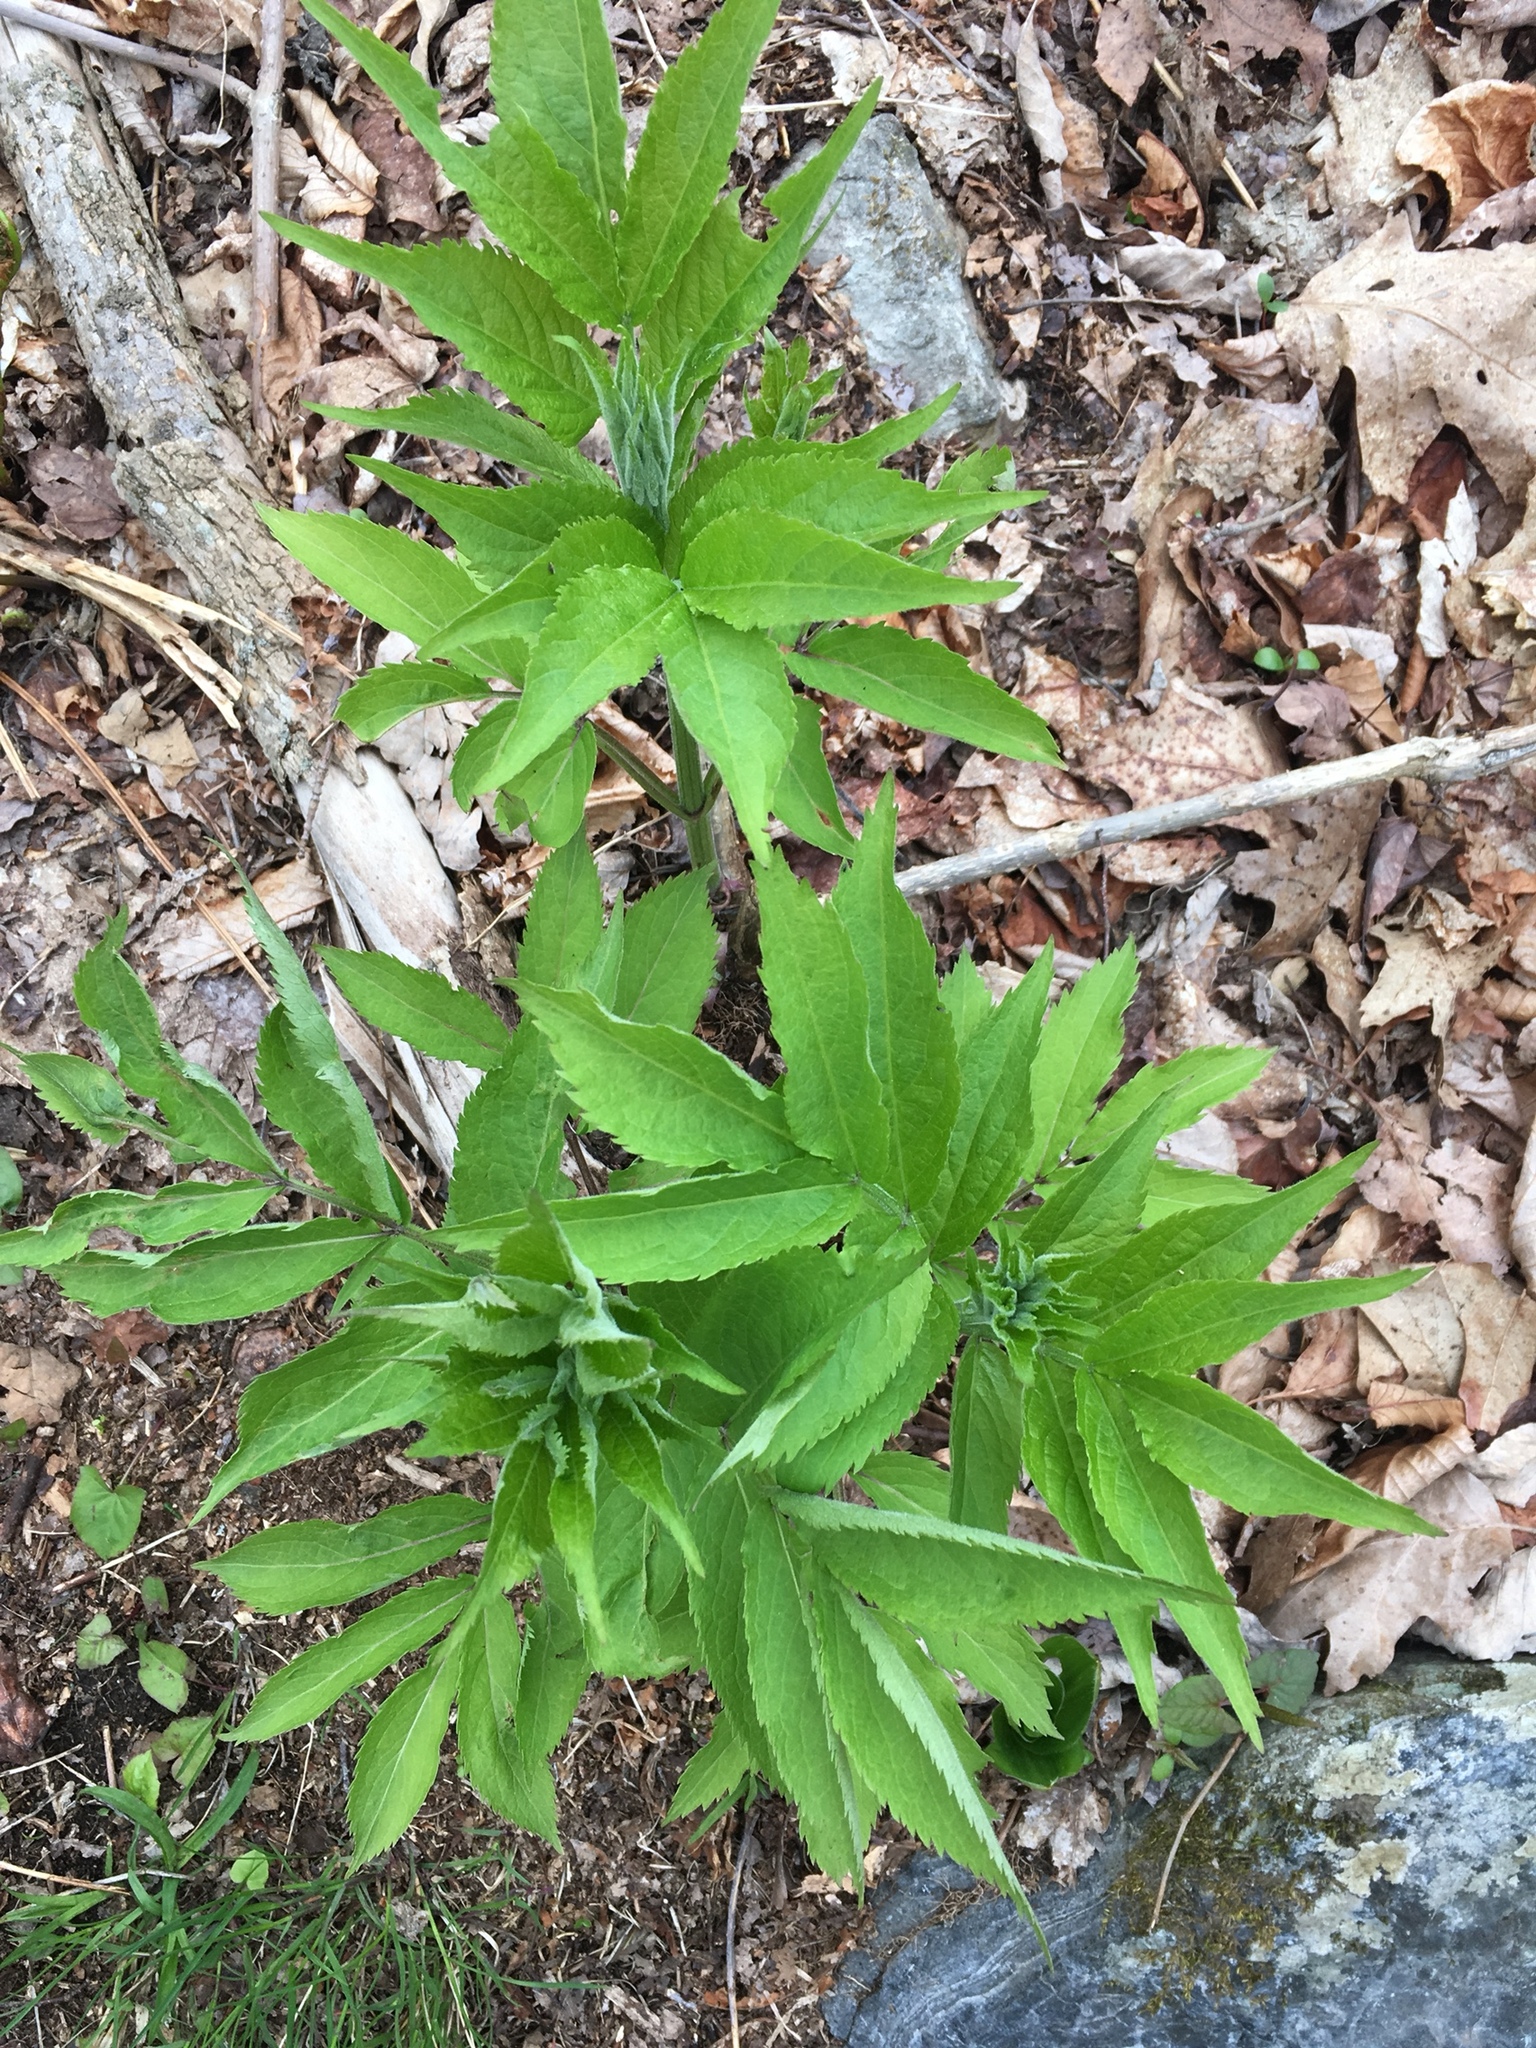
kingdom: Plantae
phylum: Tracheophyta
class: Magnoliopsida
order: Apiales
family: Araliaceae
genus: Aralia
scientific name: Aralia hispida
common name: Bristly sarsaparilla
